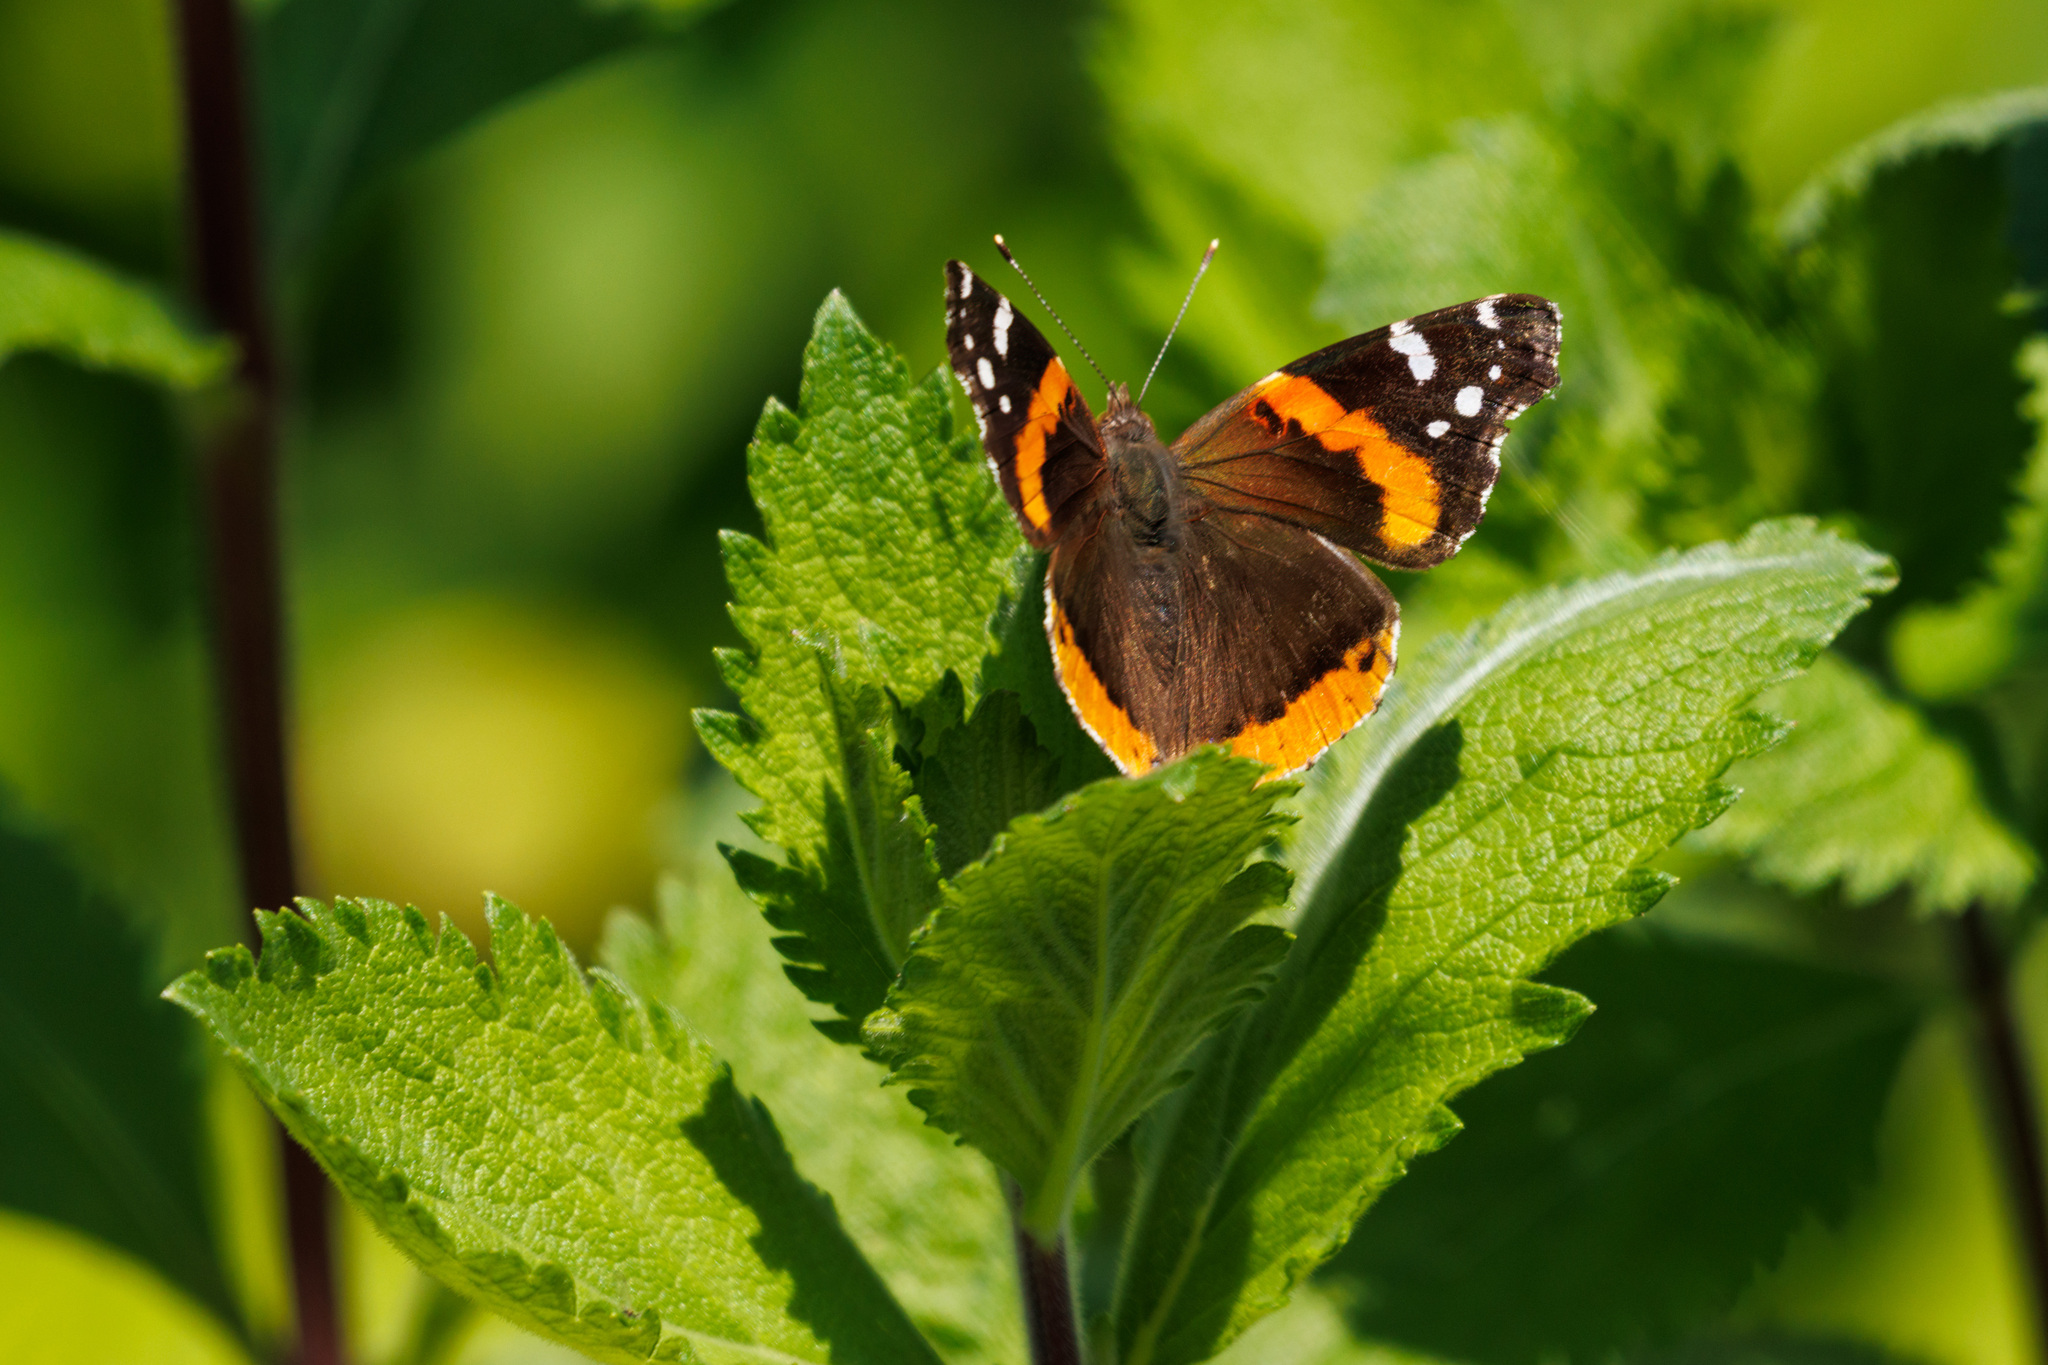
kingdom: Animalia
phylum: Arthropoda
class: Insecta
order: Lepidoptera
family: Nymphalidae
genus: Vanessa
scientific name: Vanessa atalanta
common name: Red admiral
